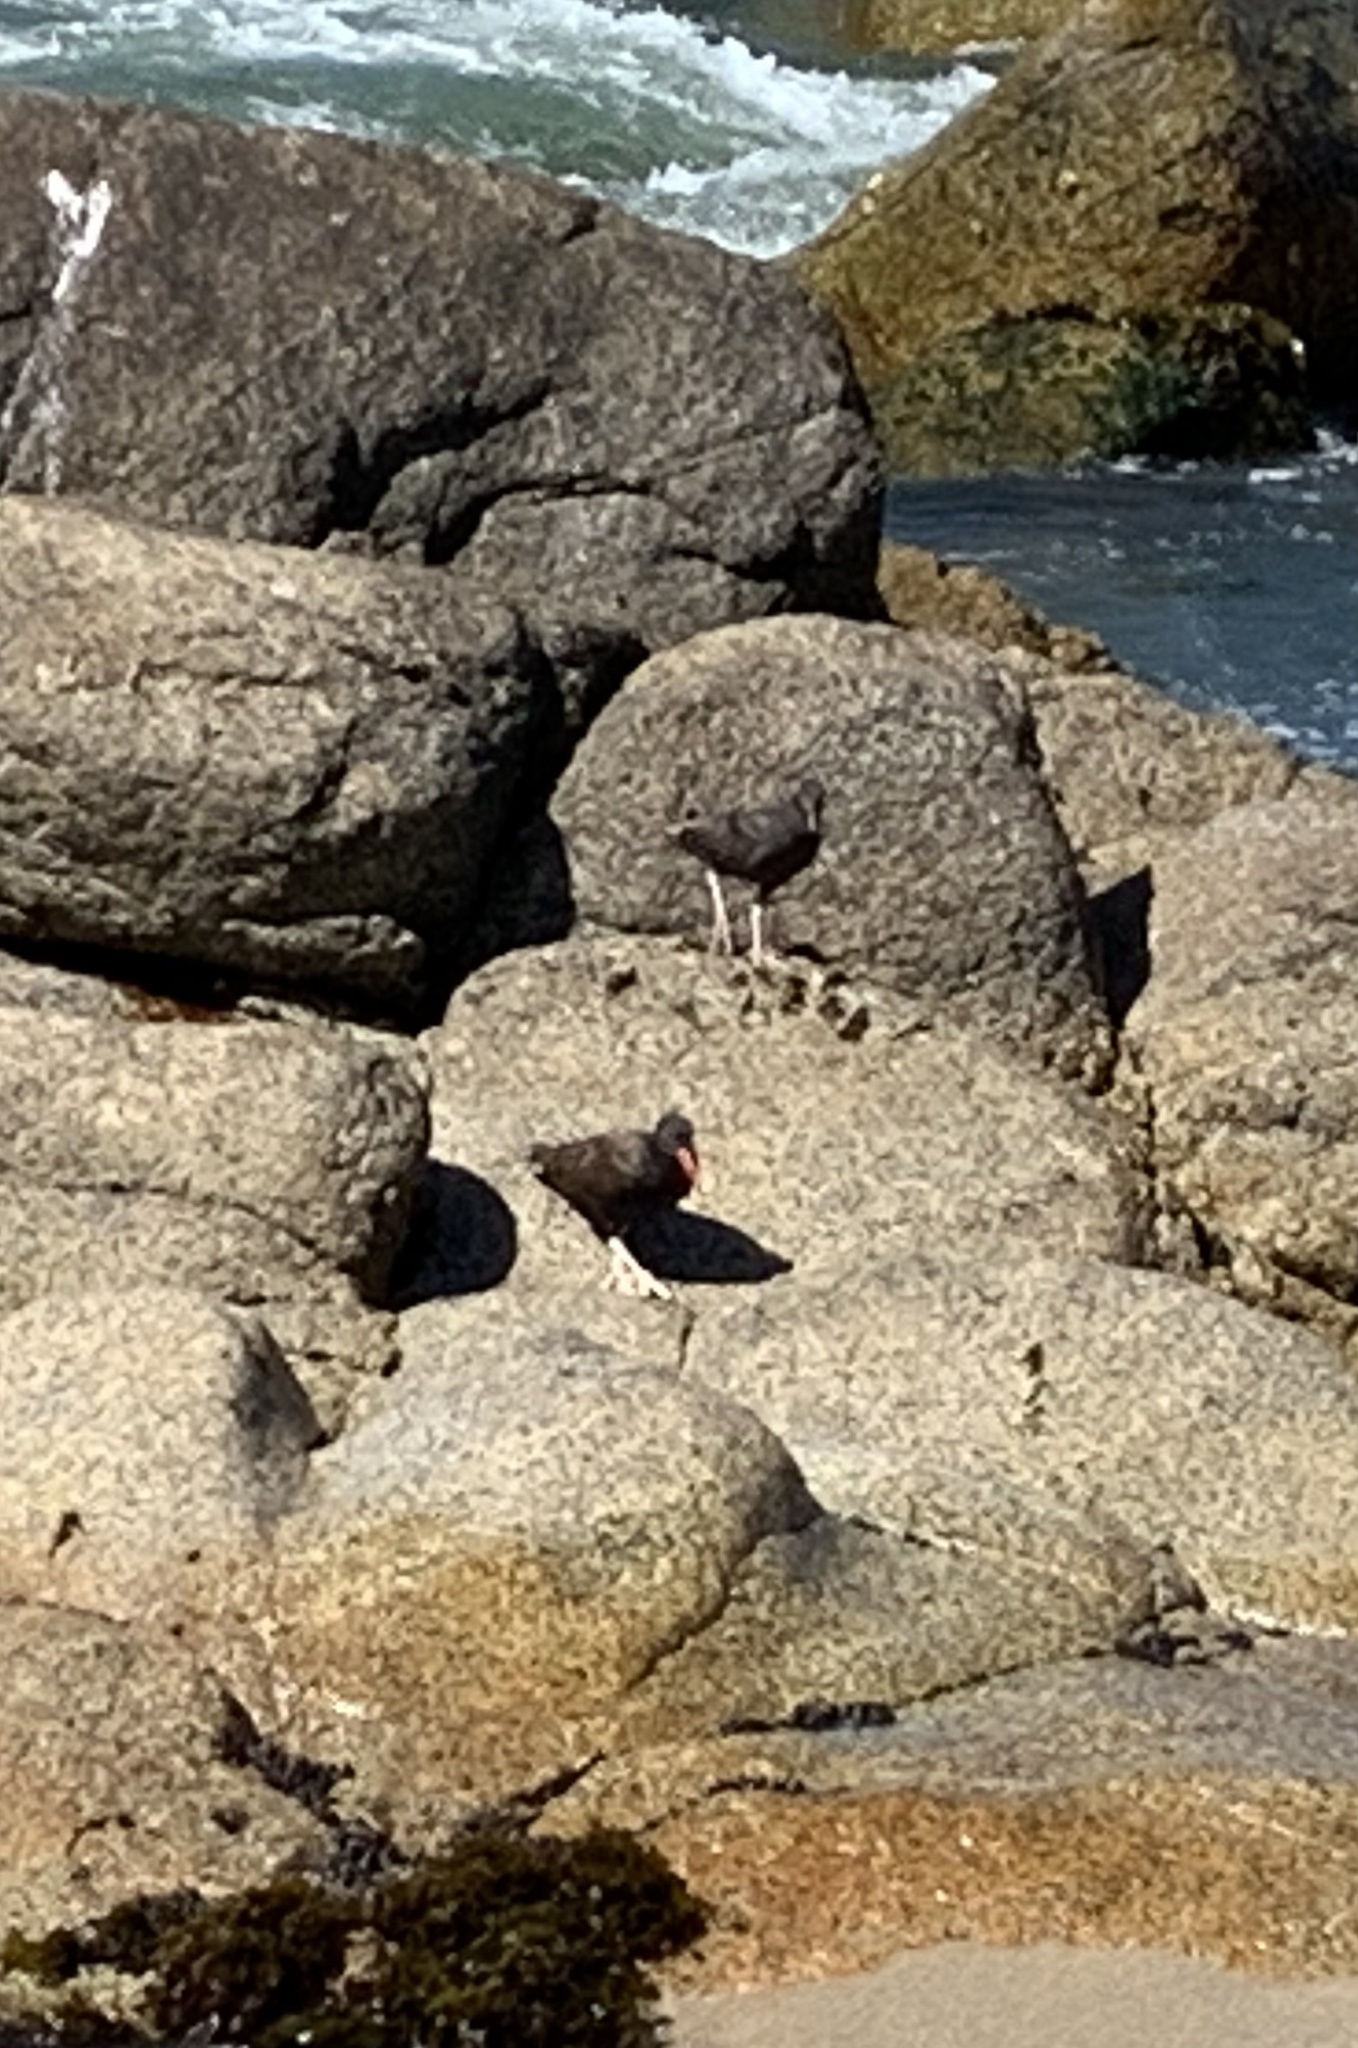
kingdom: Animalia
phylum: Chordata
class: Aves
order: Charadriiformes
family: Haematopodidae
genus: Haematopus
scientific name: Haematopus ater
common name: Blackish oystercatcher
